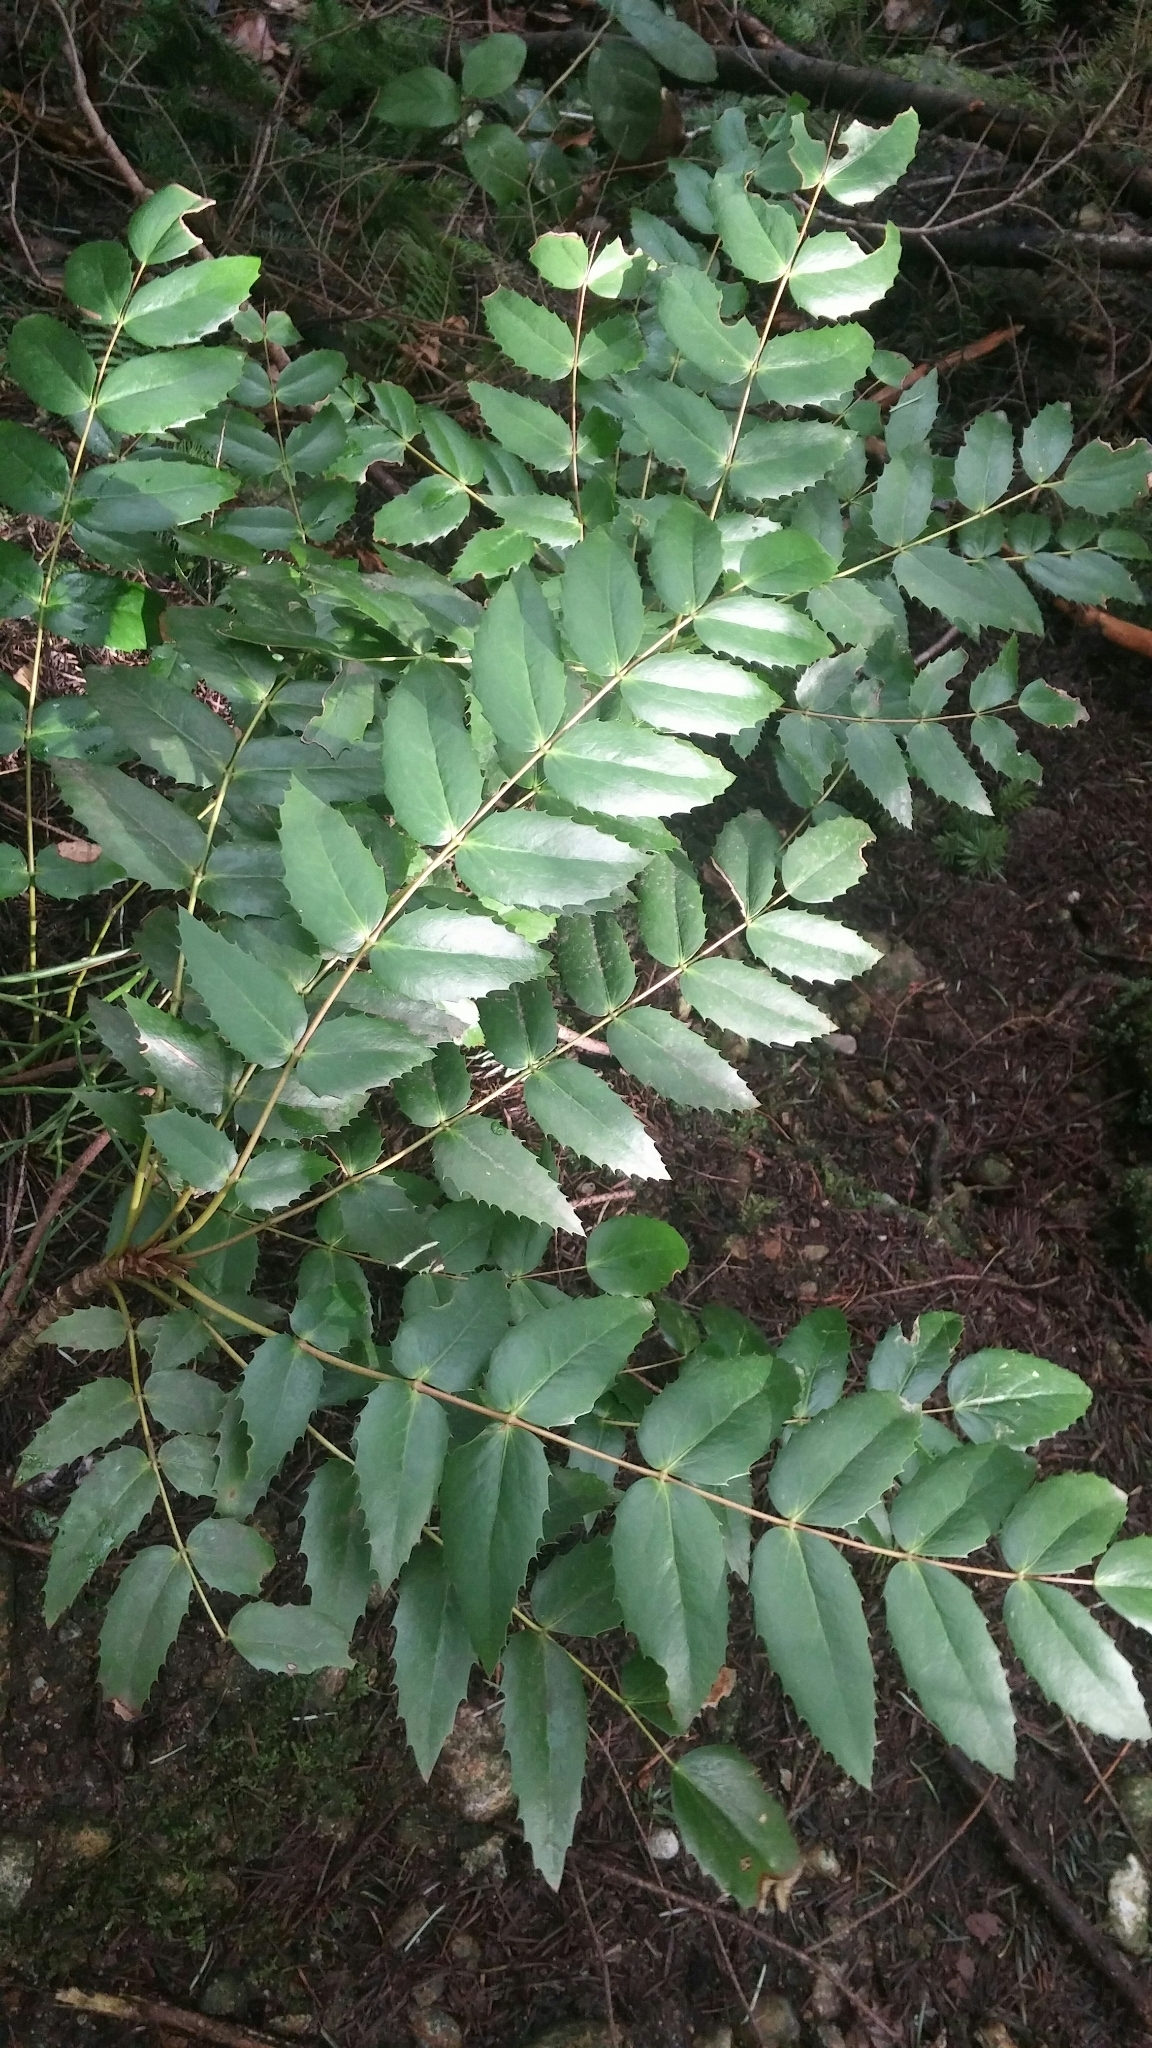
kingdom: Plantae
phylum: Tracheophyta
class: Magnoliopsida
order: Ranunculales
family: Berberidaceae
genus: Mahonia
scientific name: Mahonia nervosa
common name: Cascade oregon-grape
